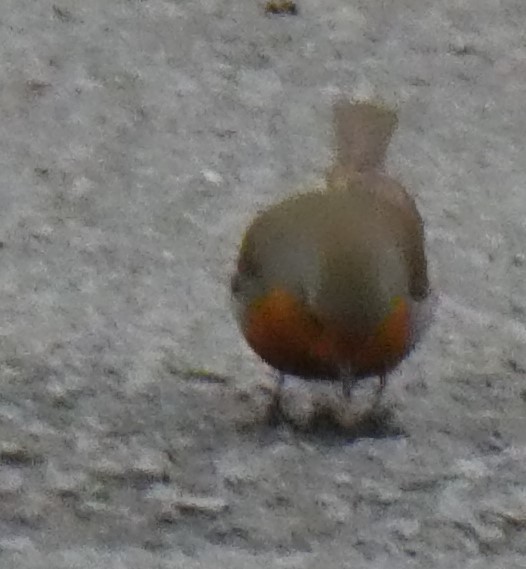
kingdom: Animalia
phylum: Chordata
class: Aves
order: Passeriformes
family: Muscicapidae
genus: Erithacus
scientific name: Erithacus rubecula
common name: European robin
